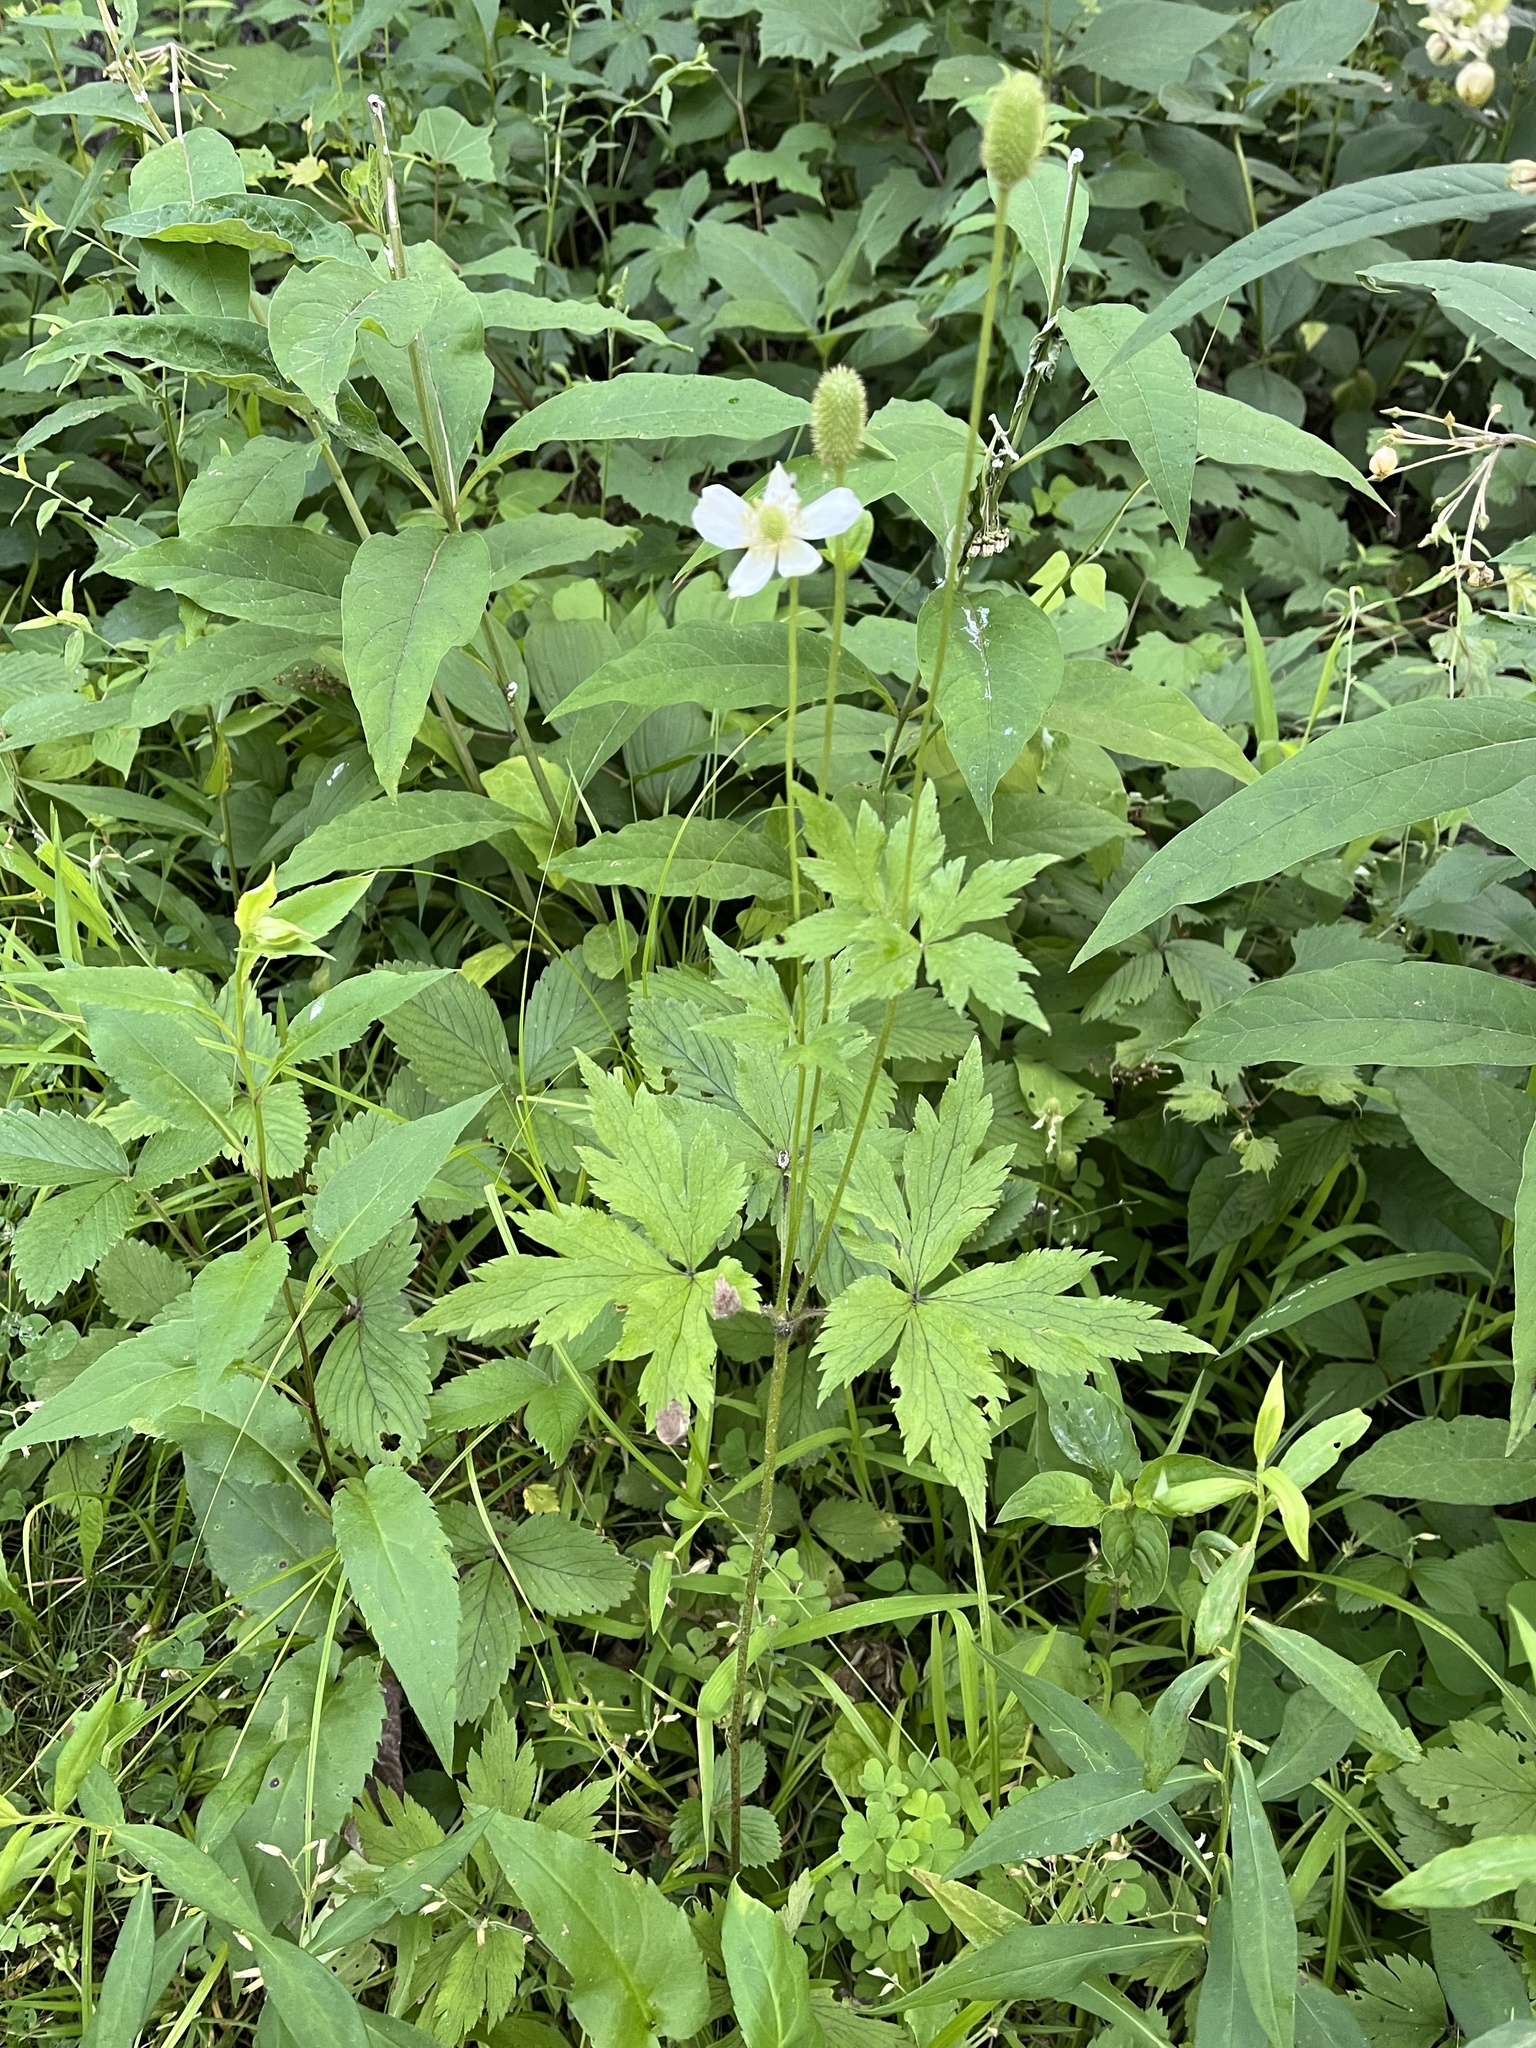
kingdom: Plantae
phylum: Tracheophyta
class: Magnoliopsida
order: Ranunculales
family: Ranunculaceae
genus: Anemone
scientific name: Anemone virginiana
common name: Tall anemone
